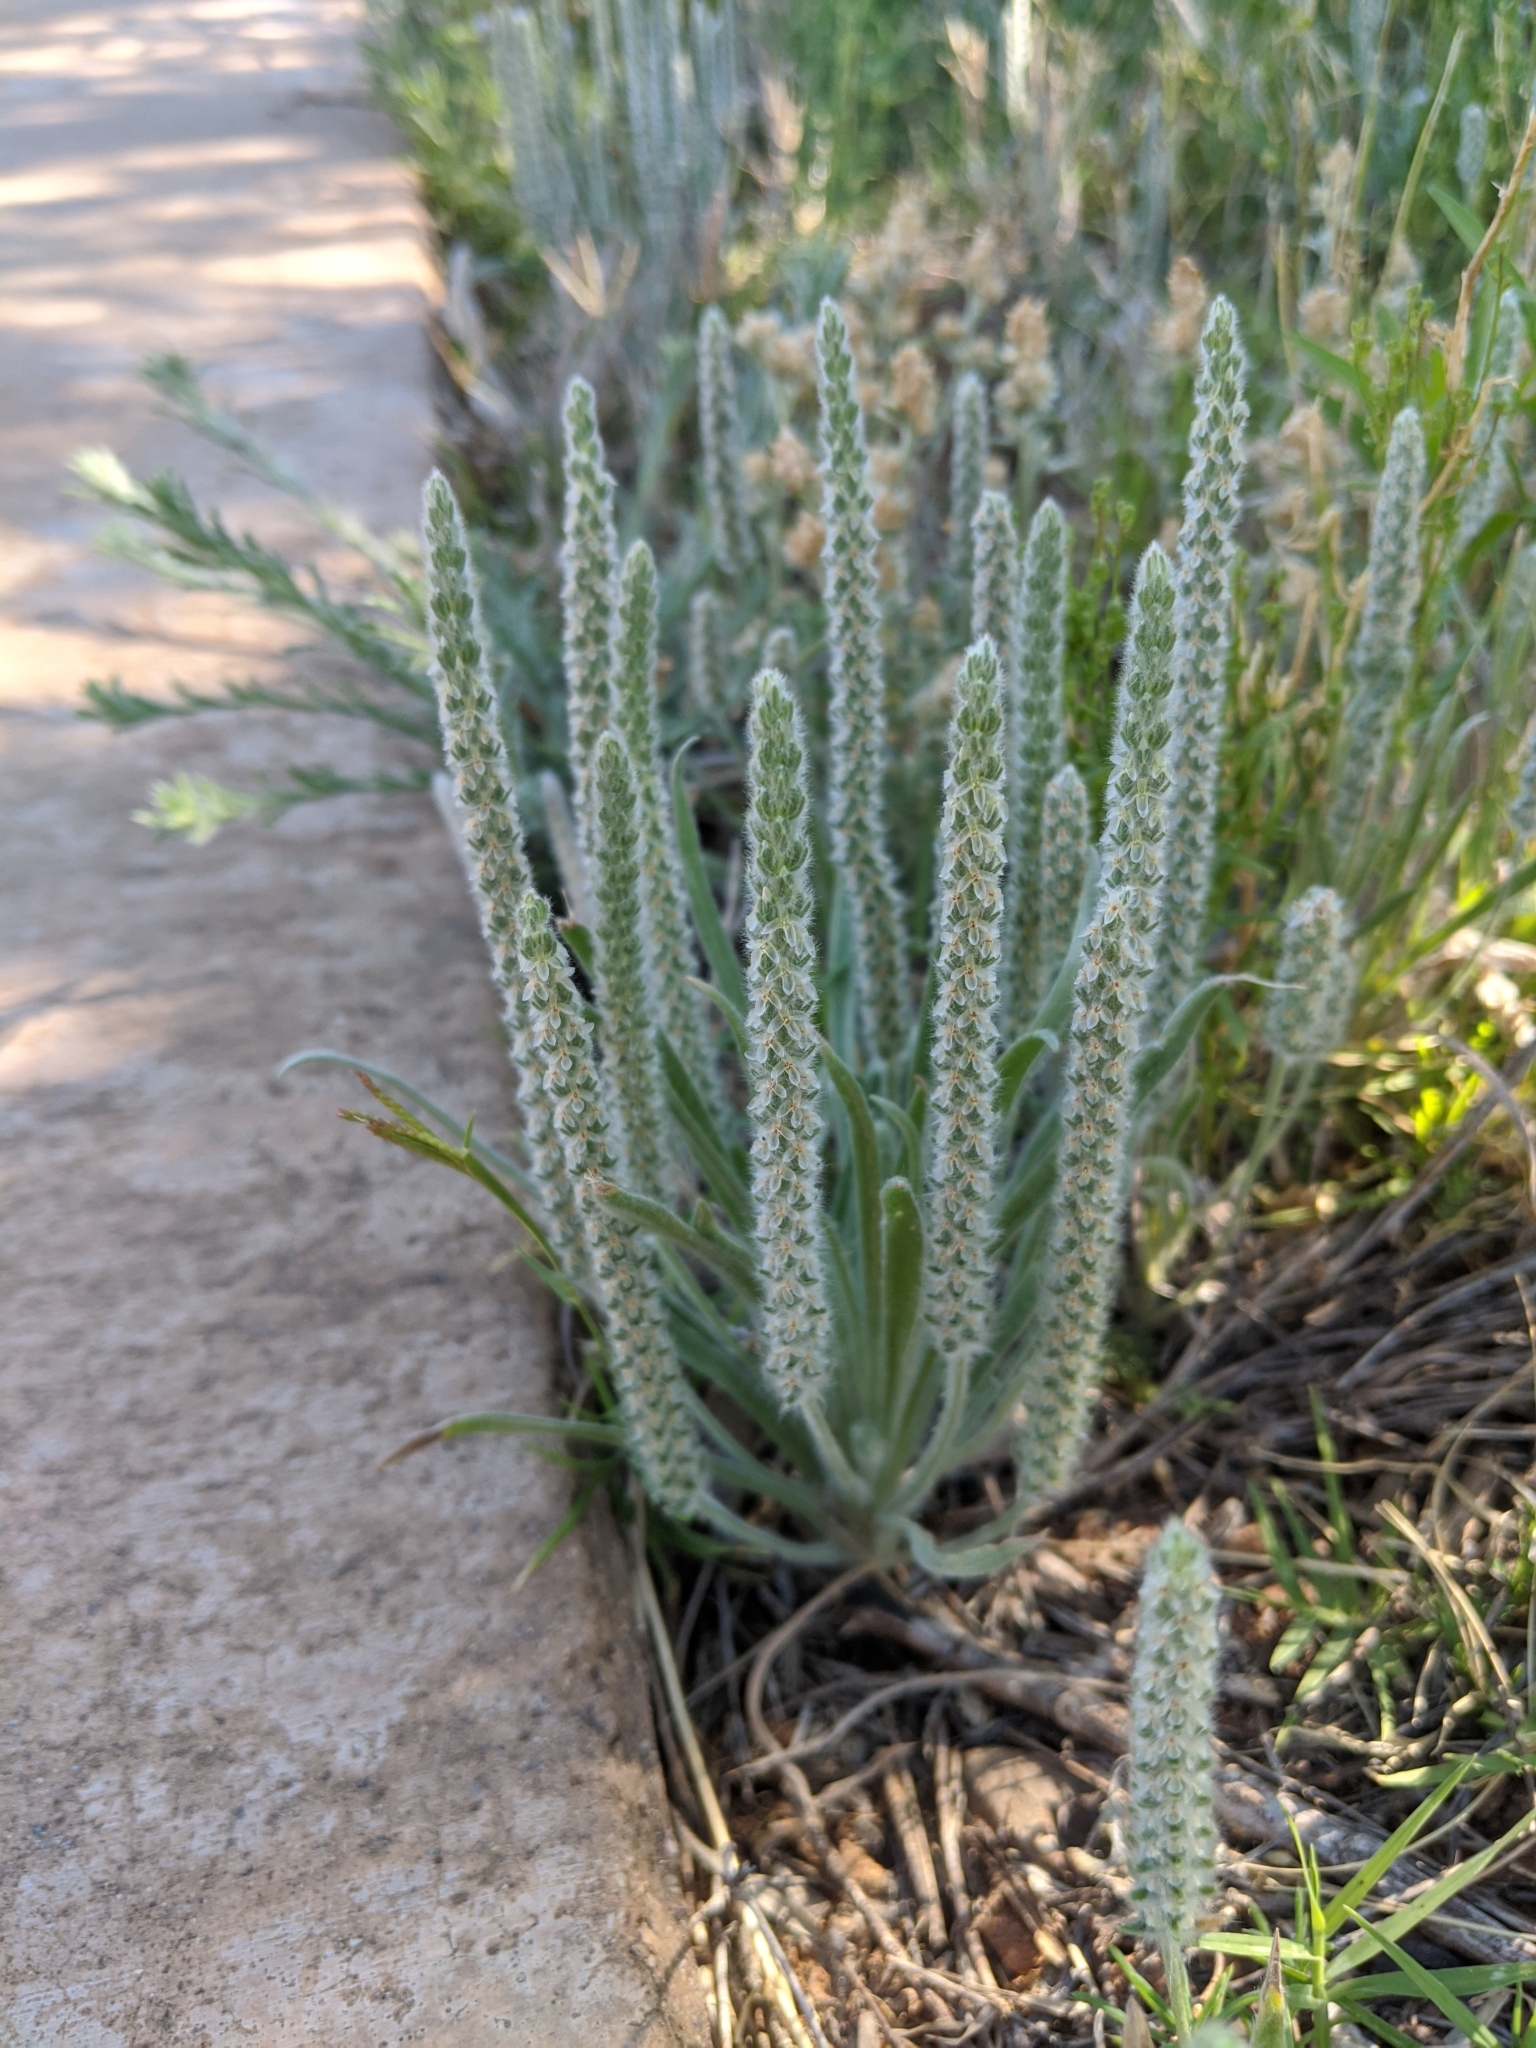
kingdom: Plantae
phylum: Tracheophyta
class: Magnoliopsida
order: Lamiales
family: Plantaginaceae
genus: Plantago
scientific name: Plantago patagonica
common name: Patagonia indian-wheat
